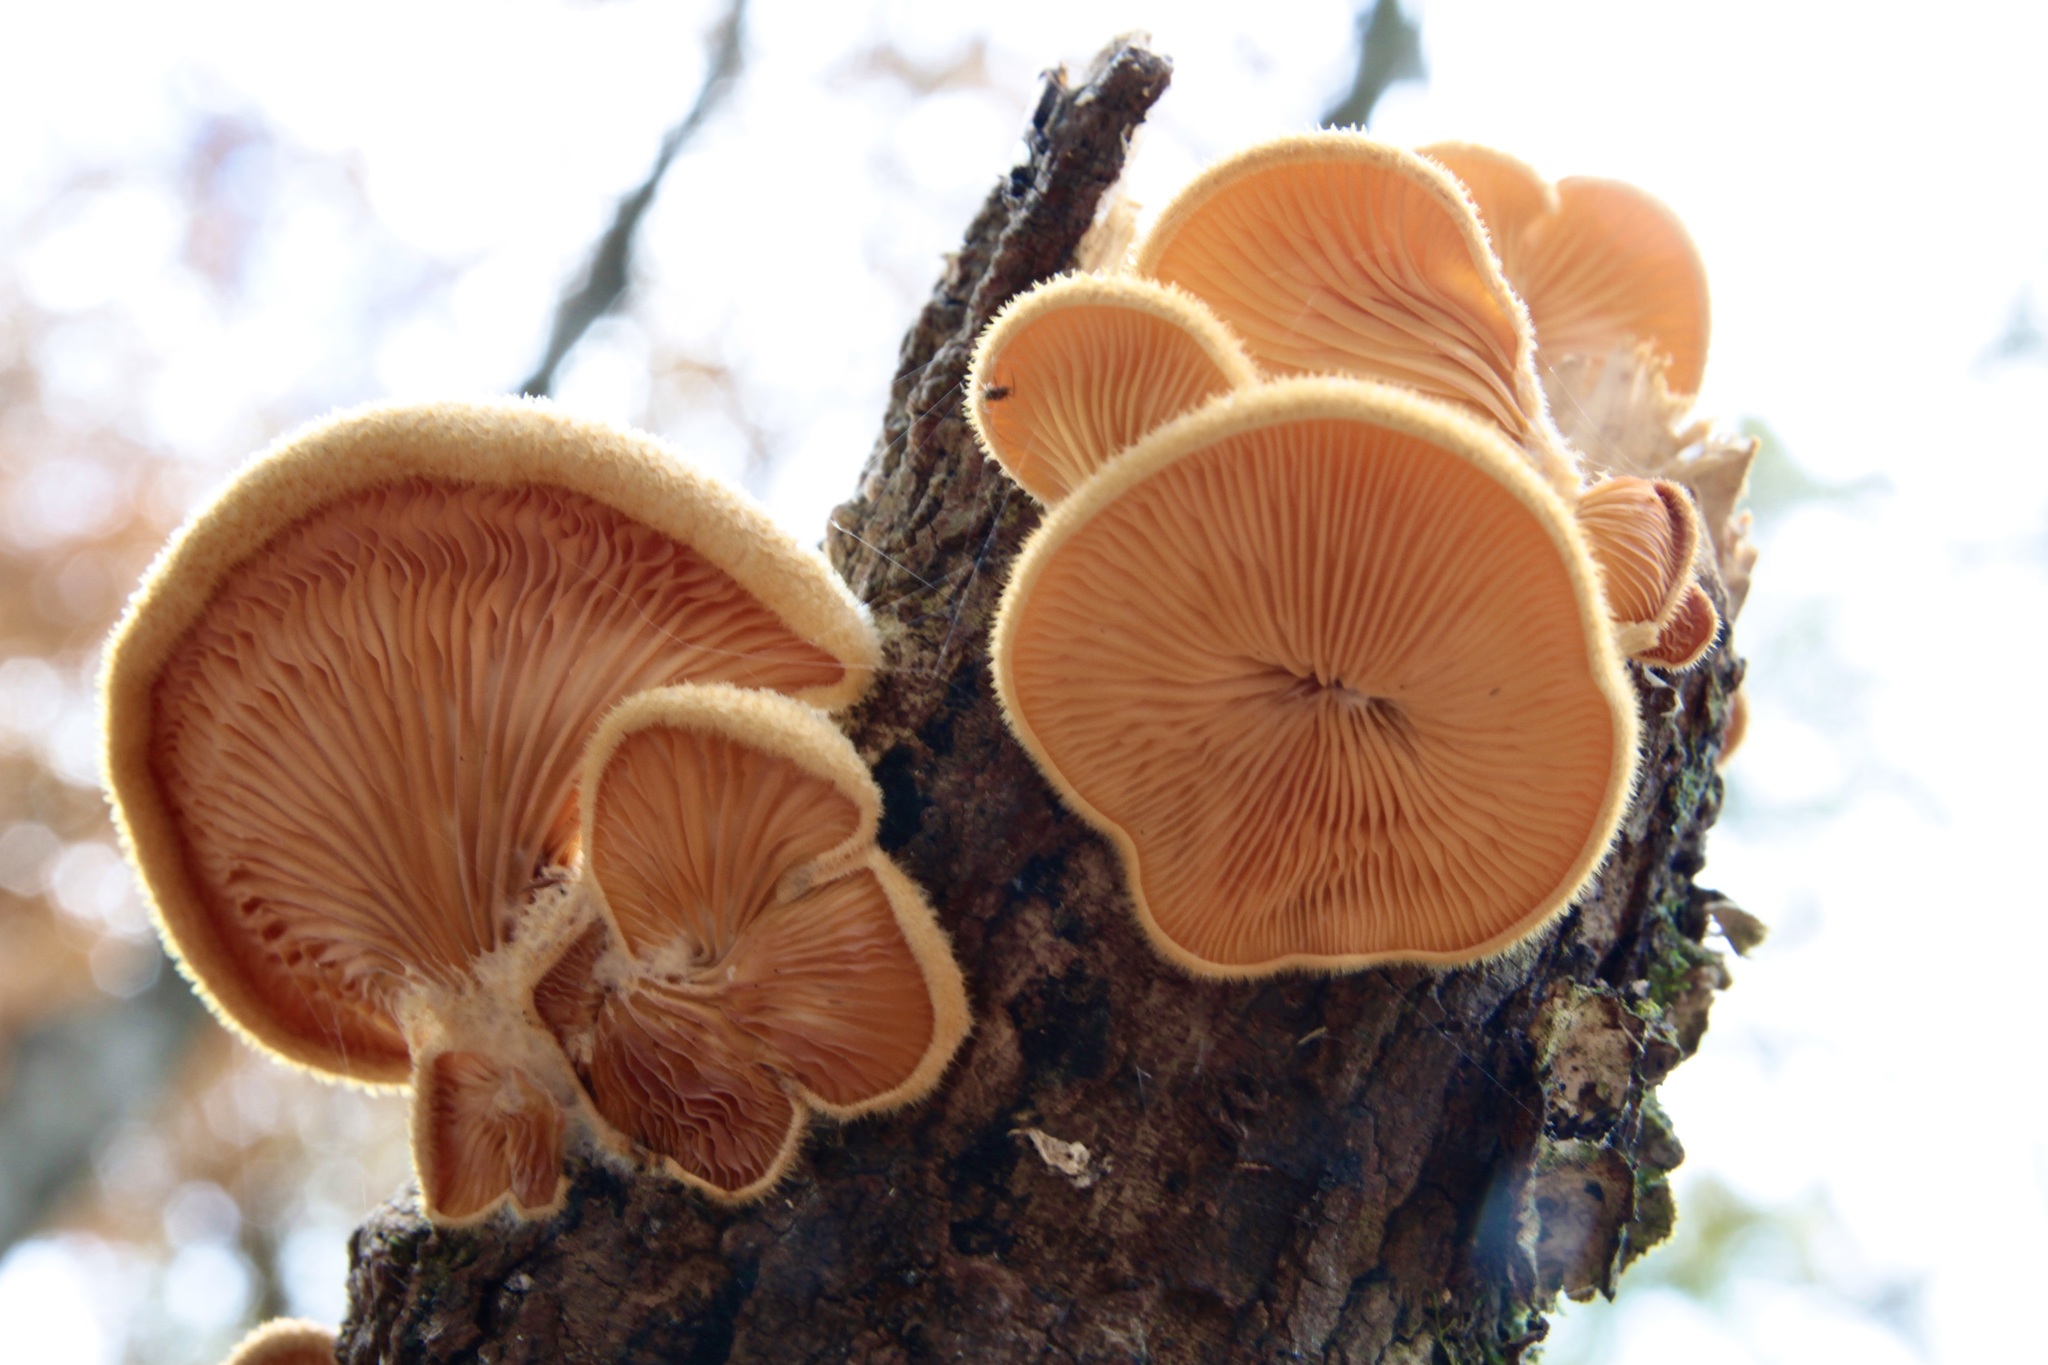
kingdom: Fungi
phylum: Basidiomycota
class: Agaricomycetes
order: Agaricales
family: Phyllotopsidaceae
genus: Phyllotopsis
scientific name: Phyllotopsis nidulans
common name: Orange mock oyster
